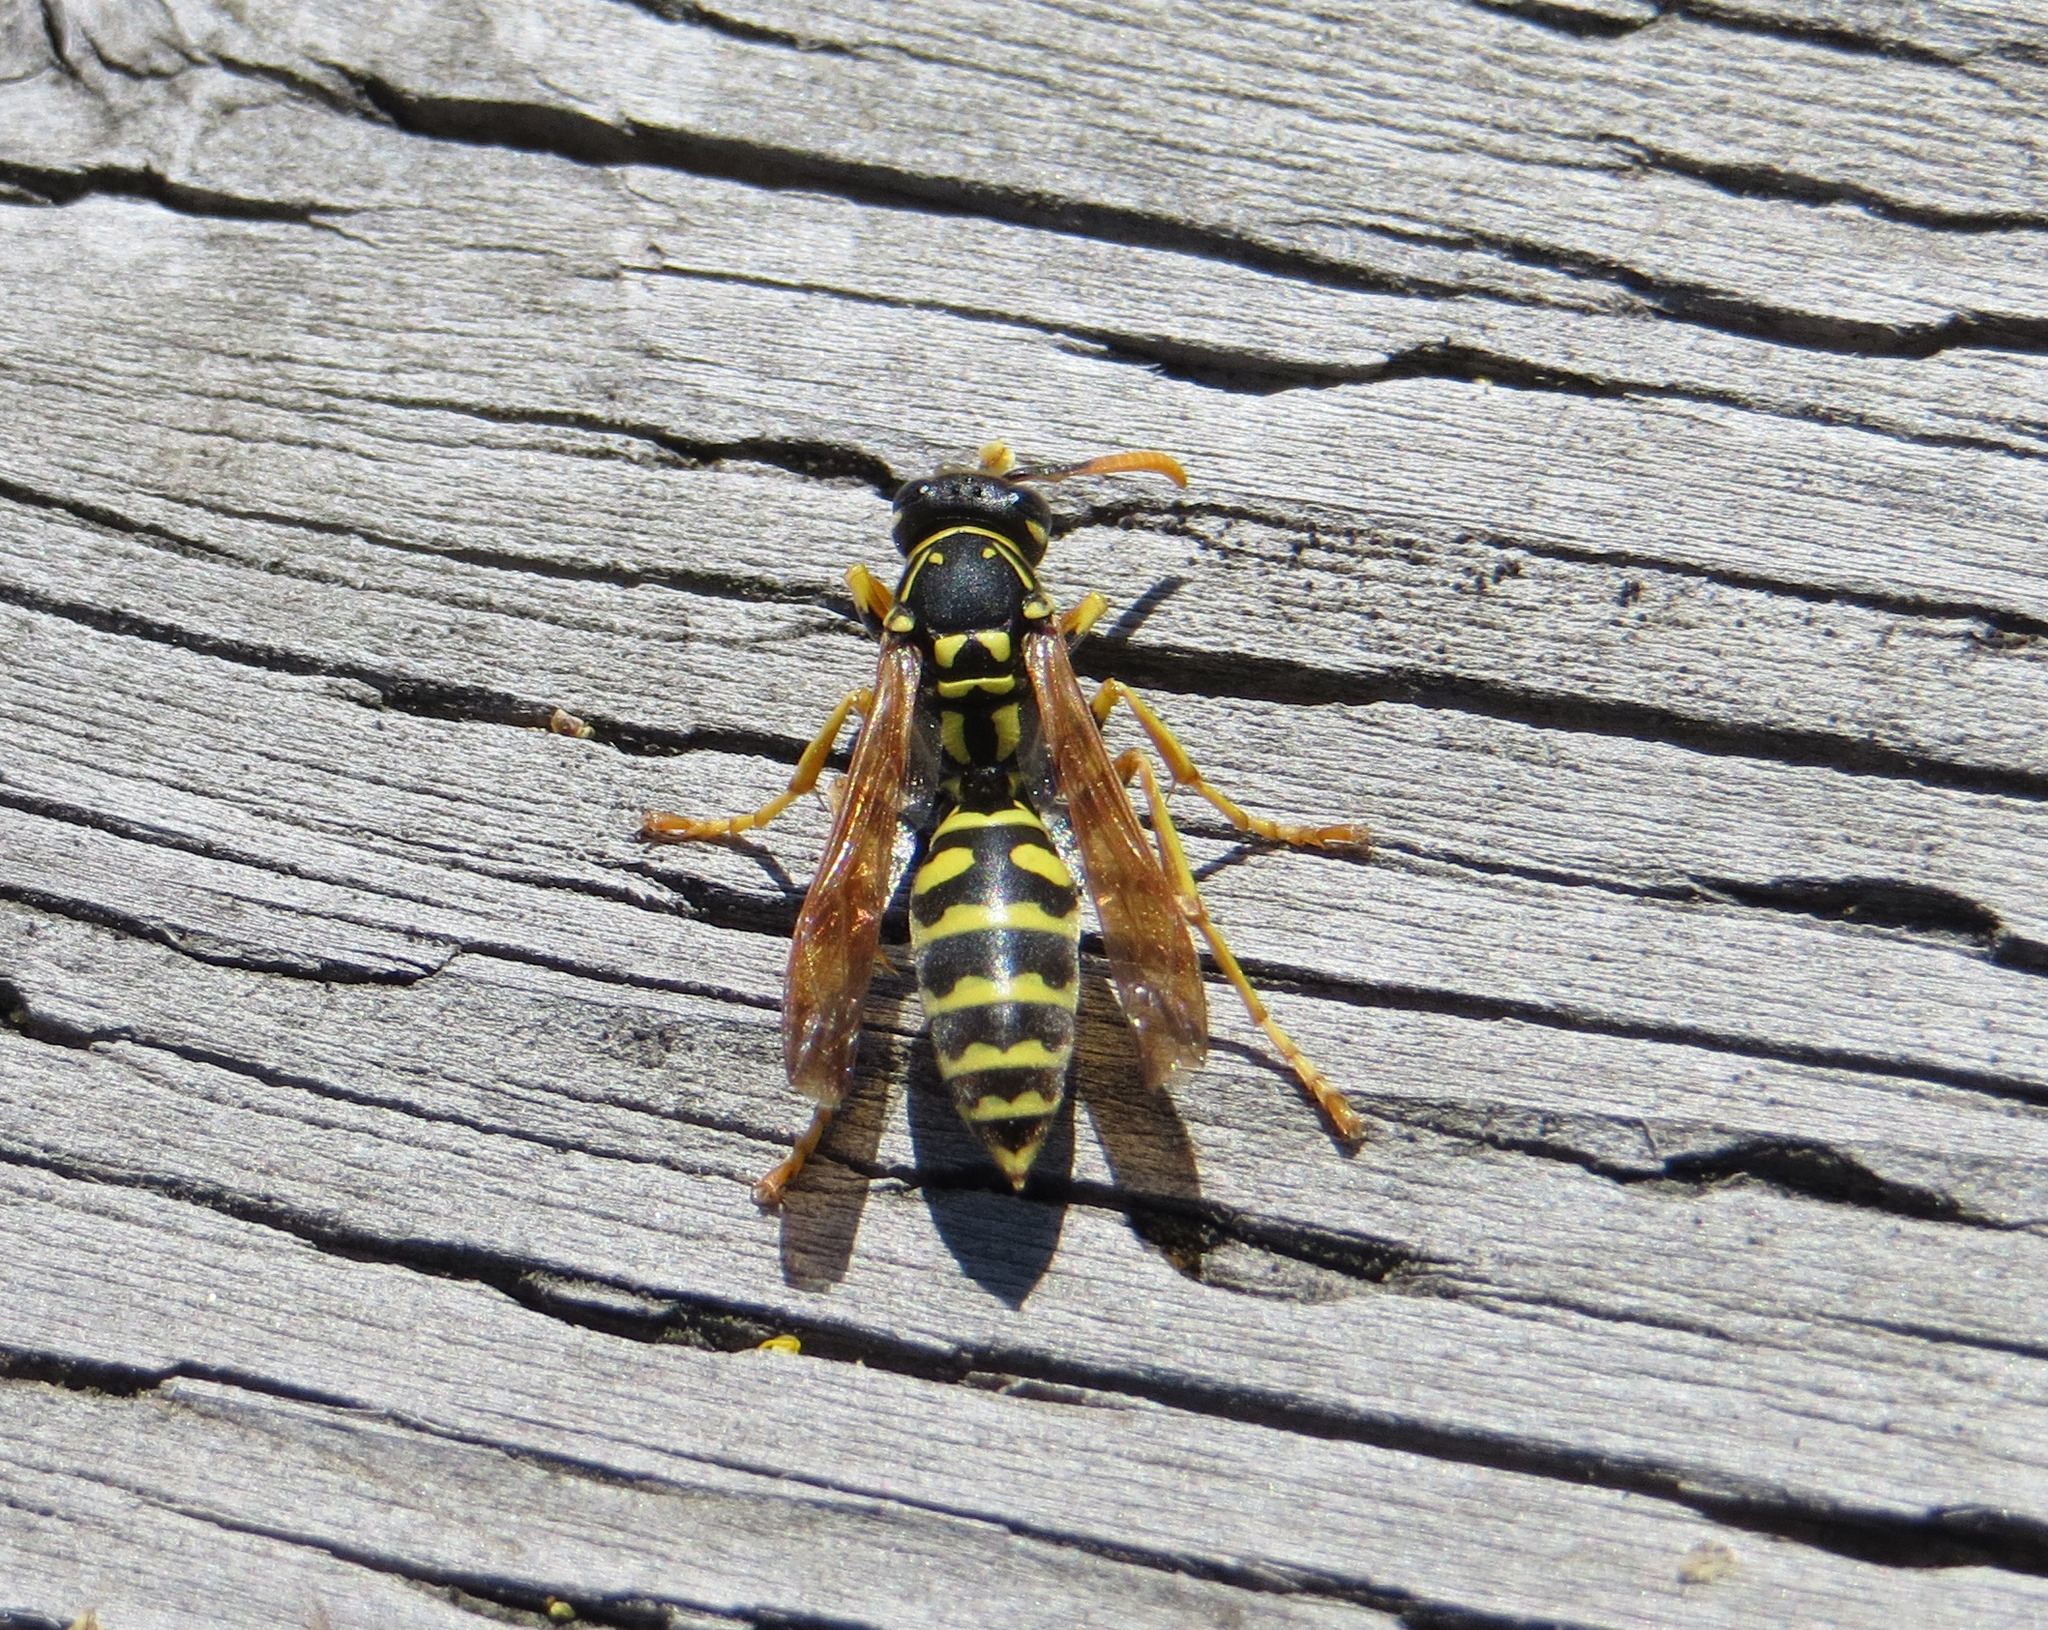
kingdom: Animalia
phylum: Arthropoda
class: Insecta
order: Hymenoptera
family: Eumenidae
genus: Polistes
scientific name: Polistes dominula
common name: Paper wasp
